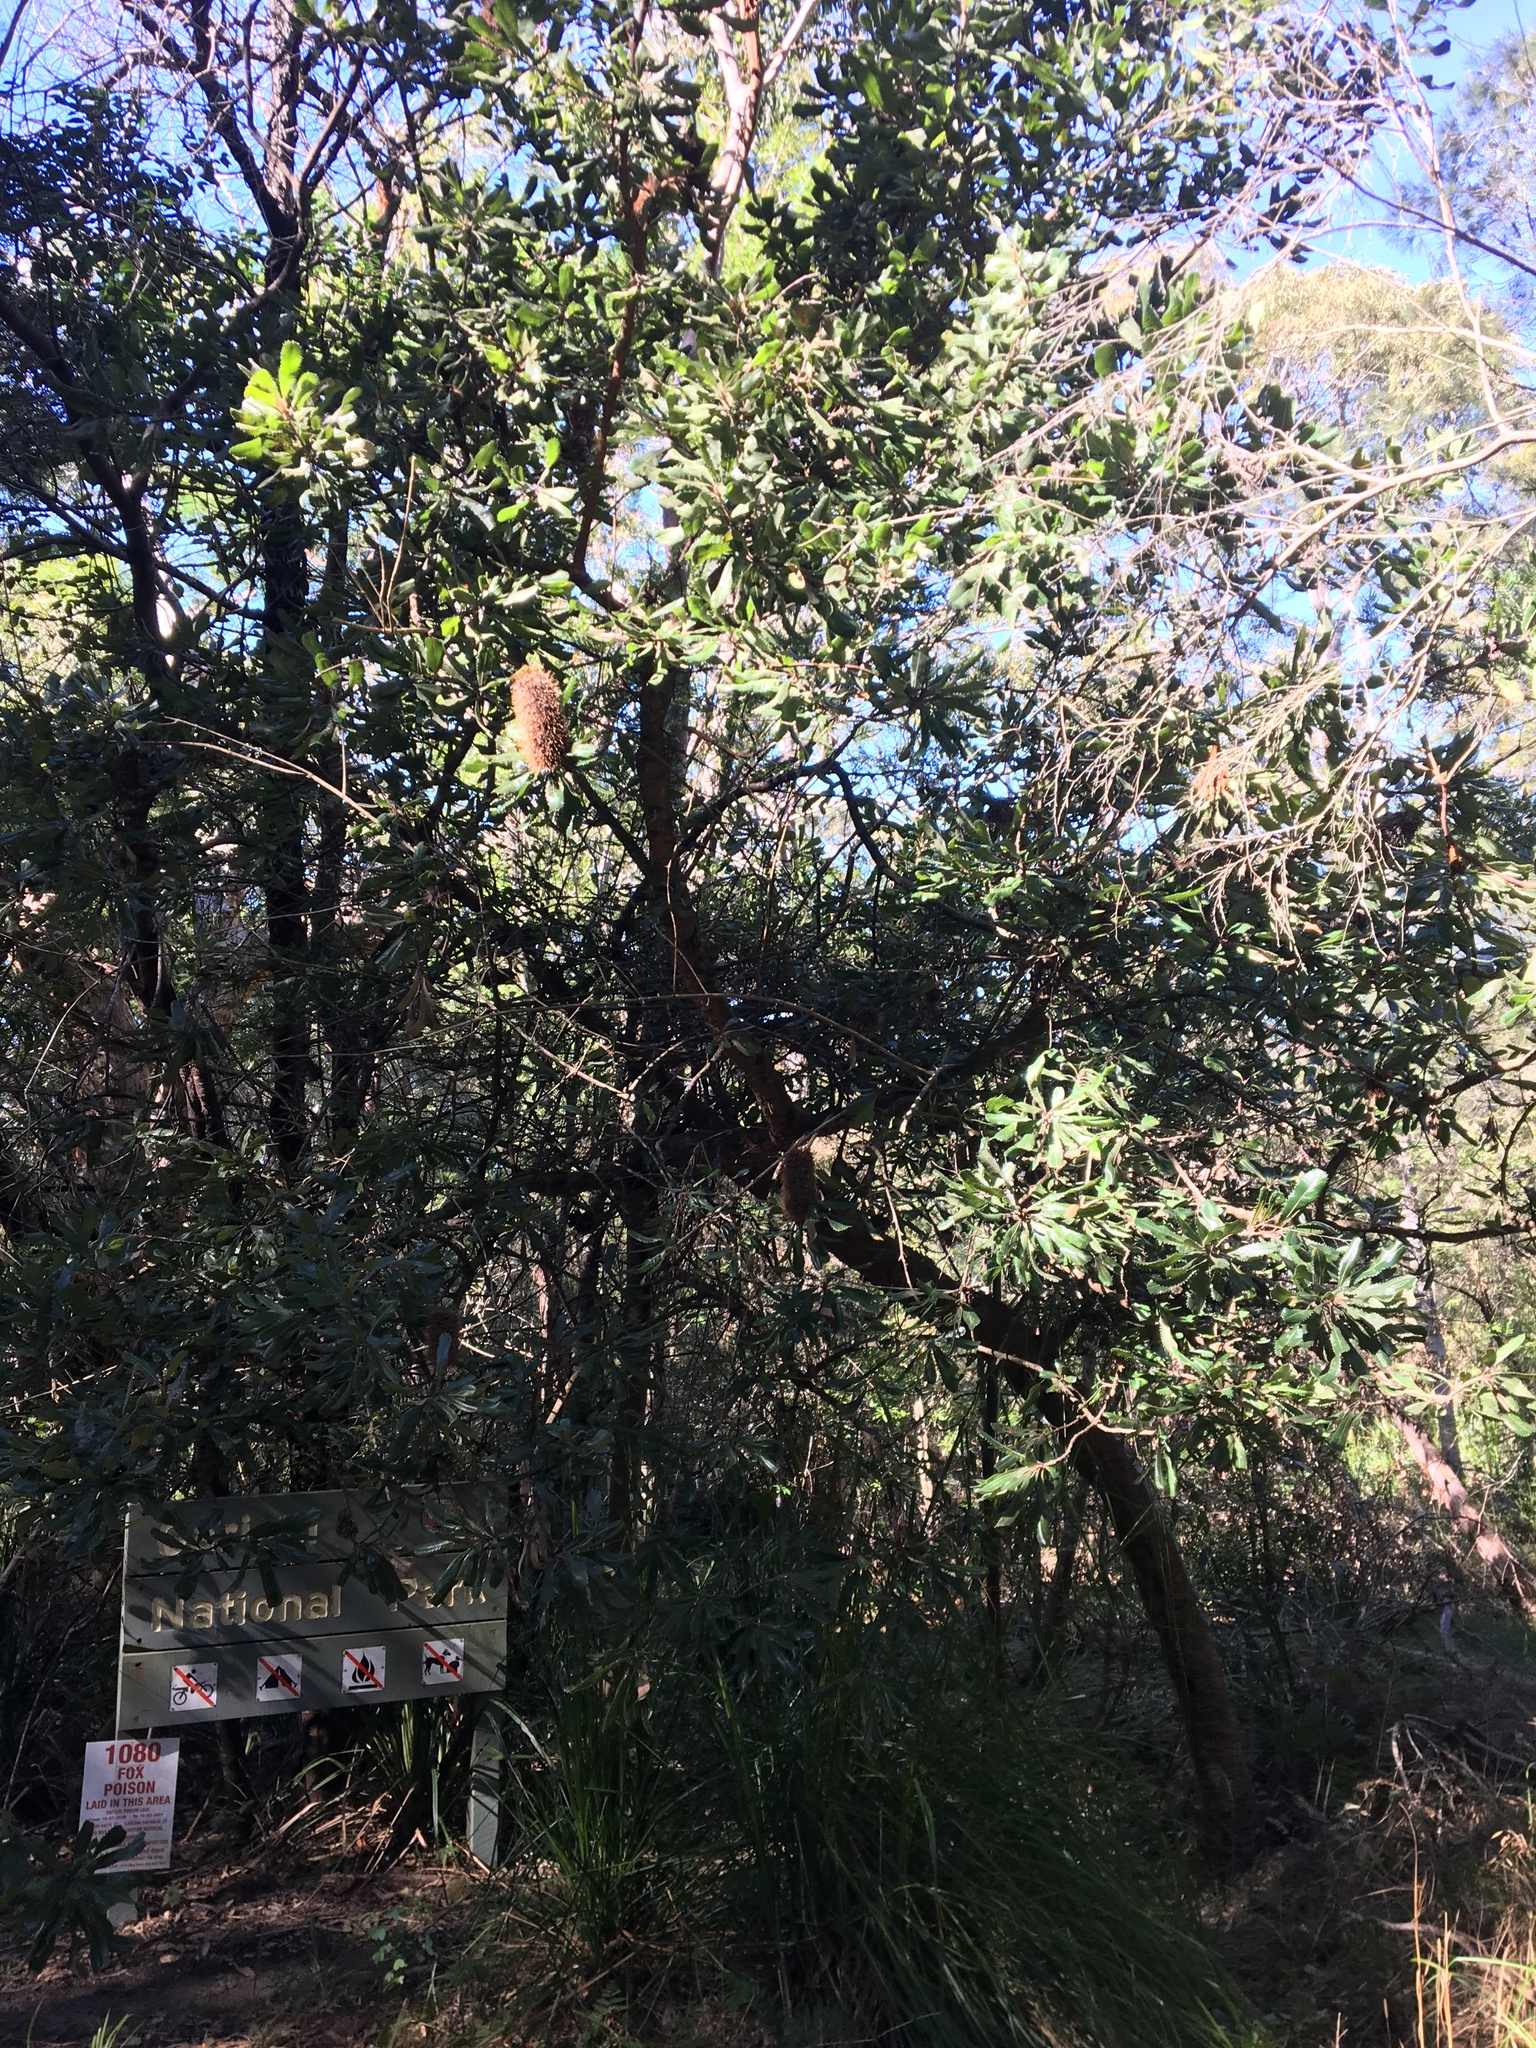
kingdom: Plantae
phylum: Tracheophyta
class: Magnoliopsida
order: Proteales
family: Proteaceae
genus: Banksia
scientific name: Banksia serrata
